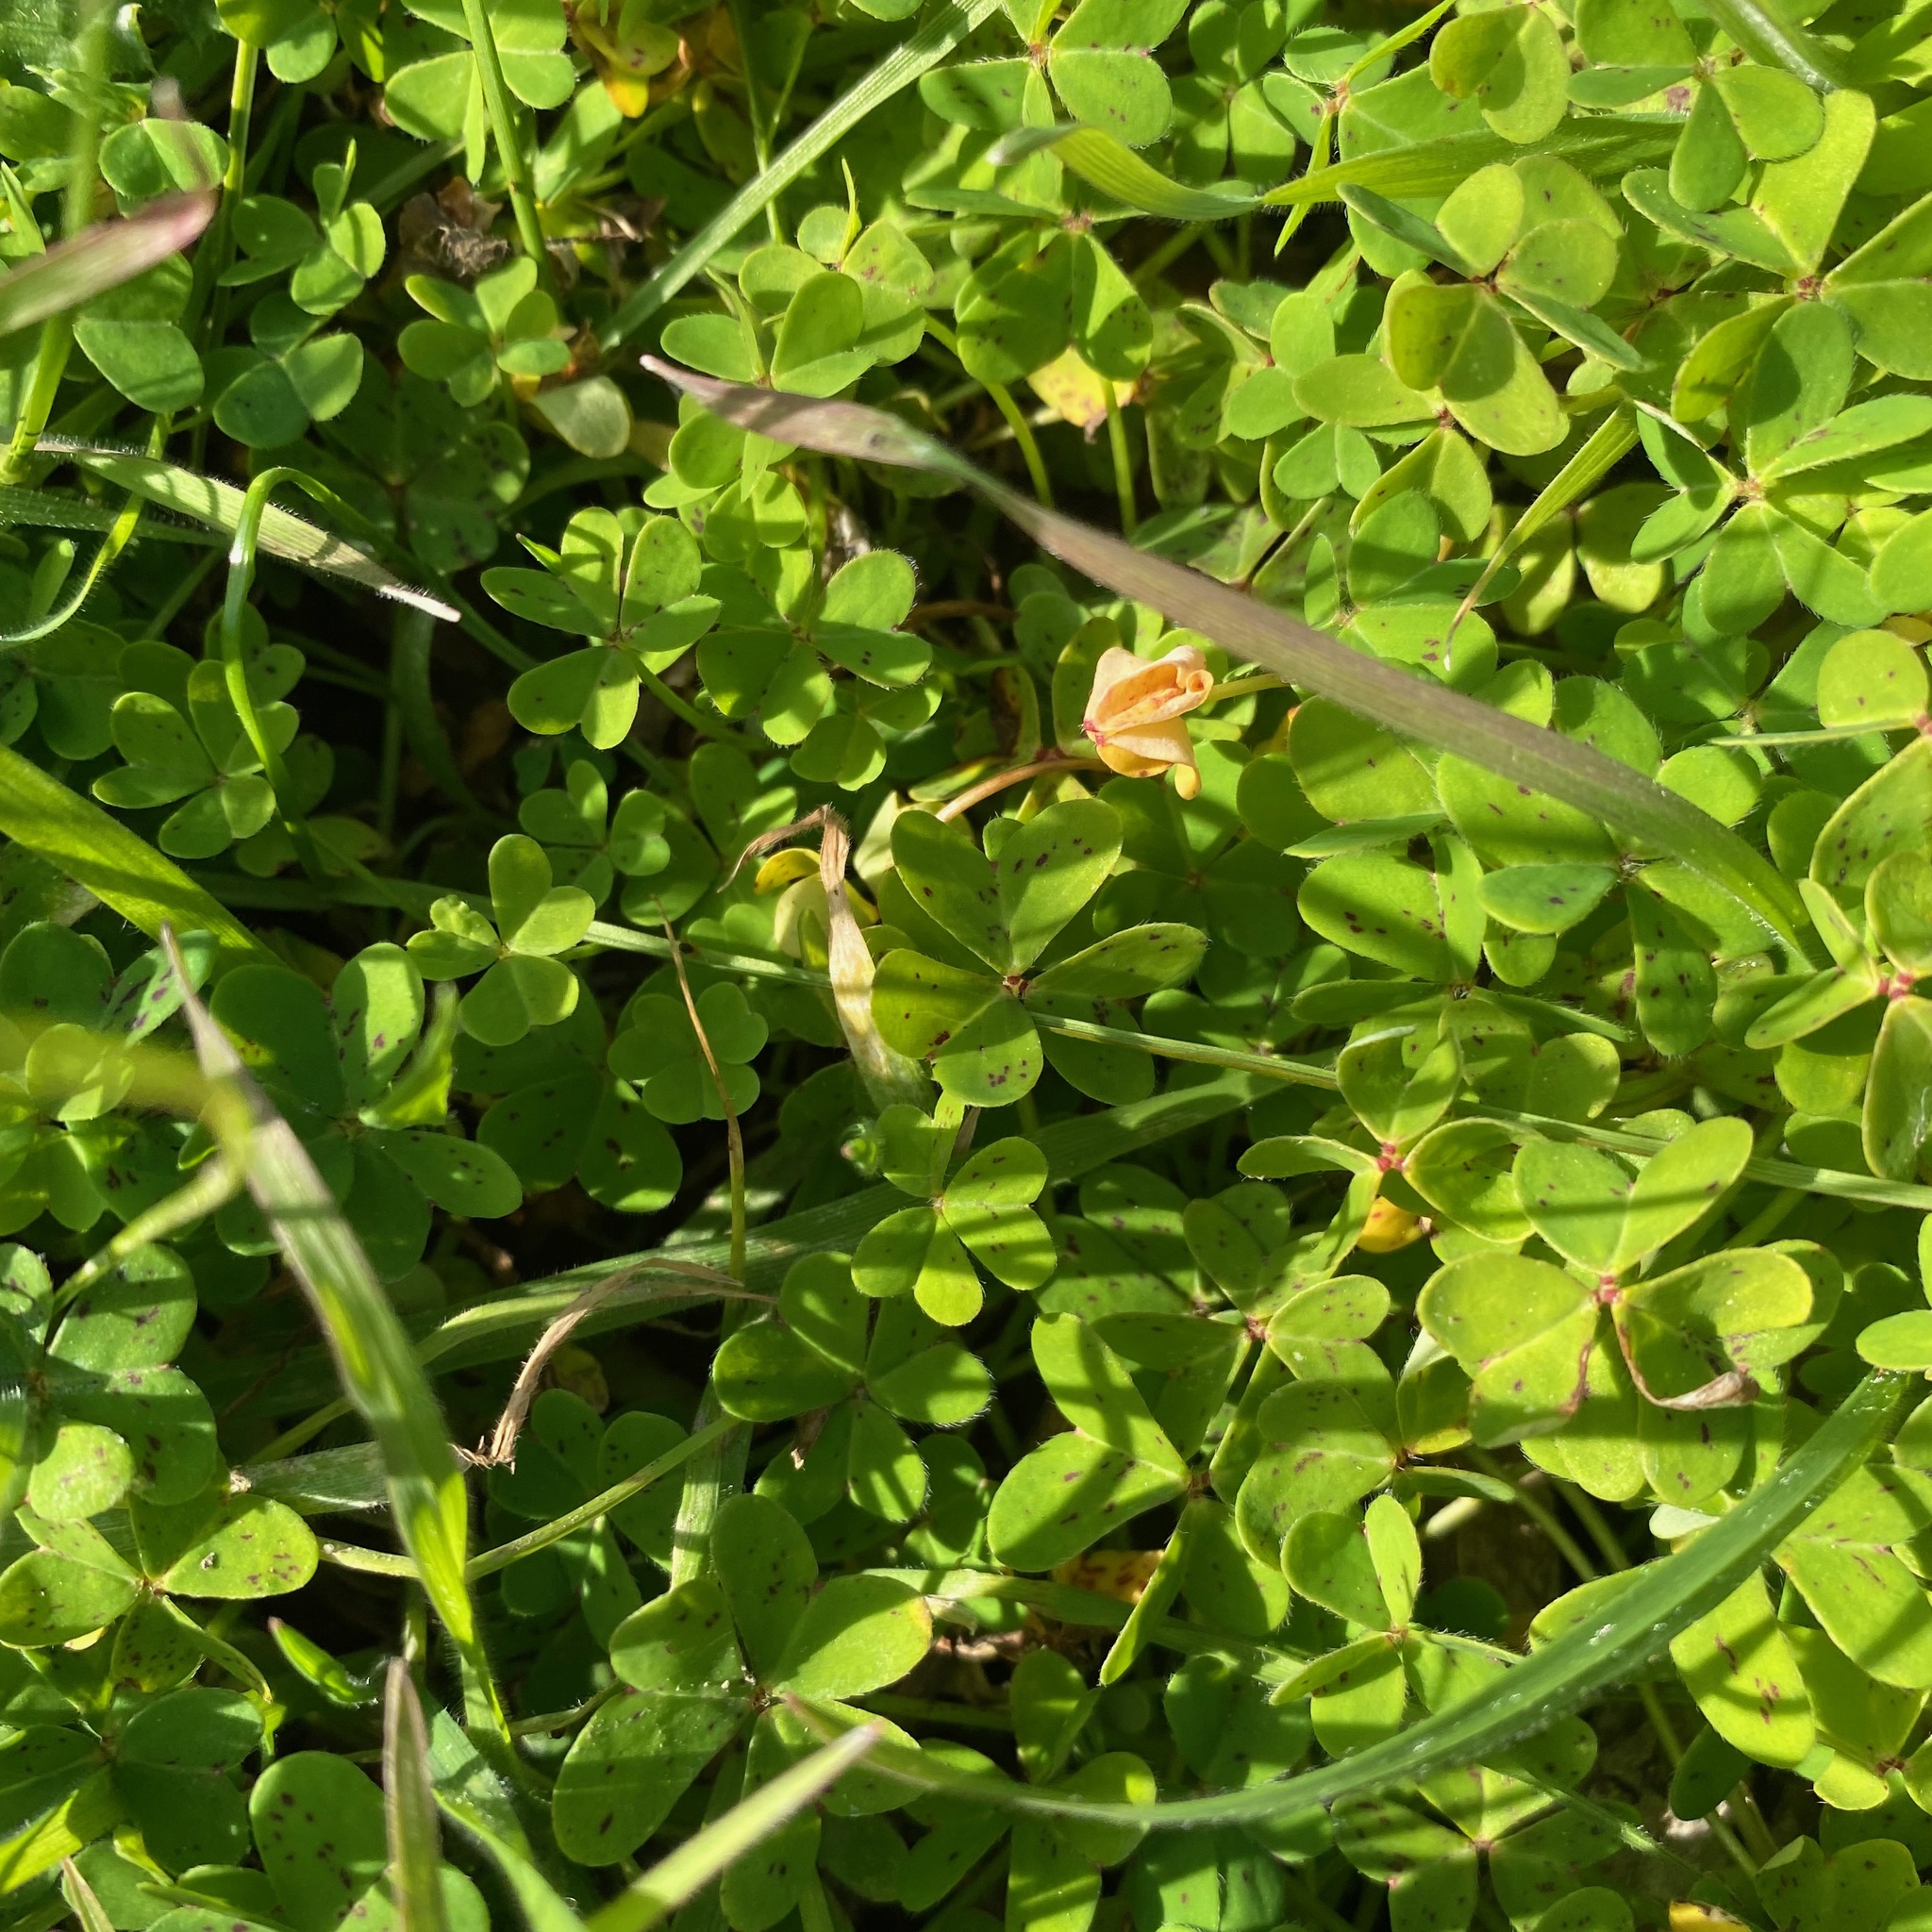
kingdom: Plantae
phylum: Tracheophyta
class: Magnoliopsida
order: Oxalidales
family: Oxalidaceae
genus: Oxalis
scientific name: Oxalis pes-caprae
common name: Bermuda-buttercup
